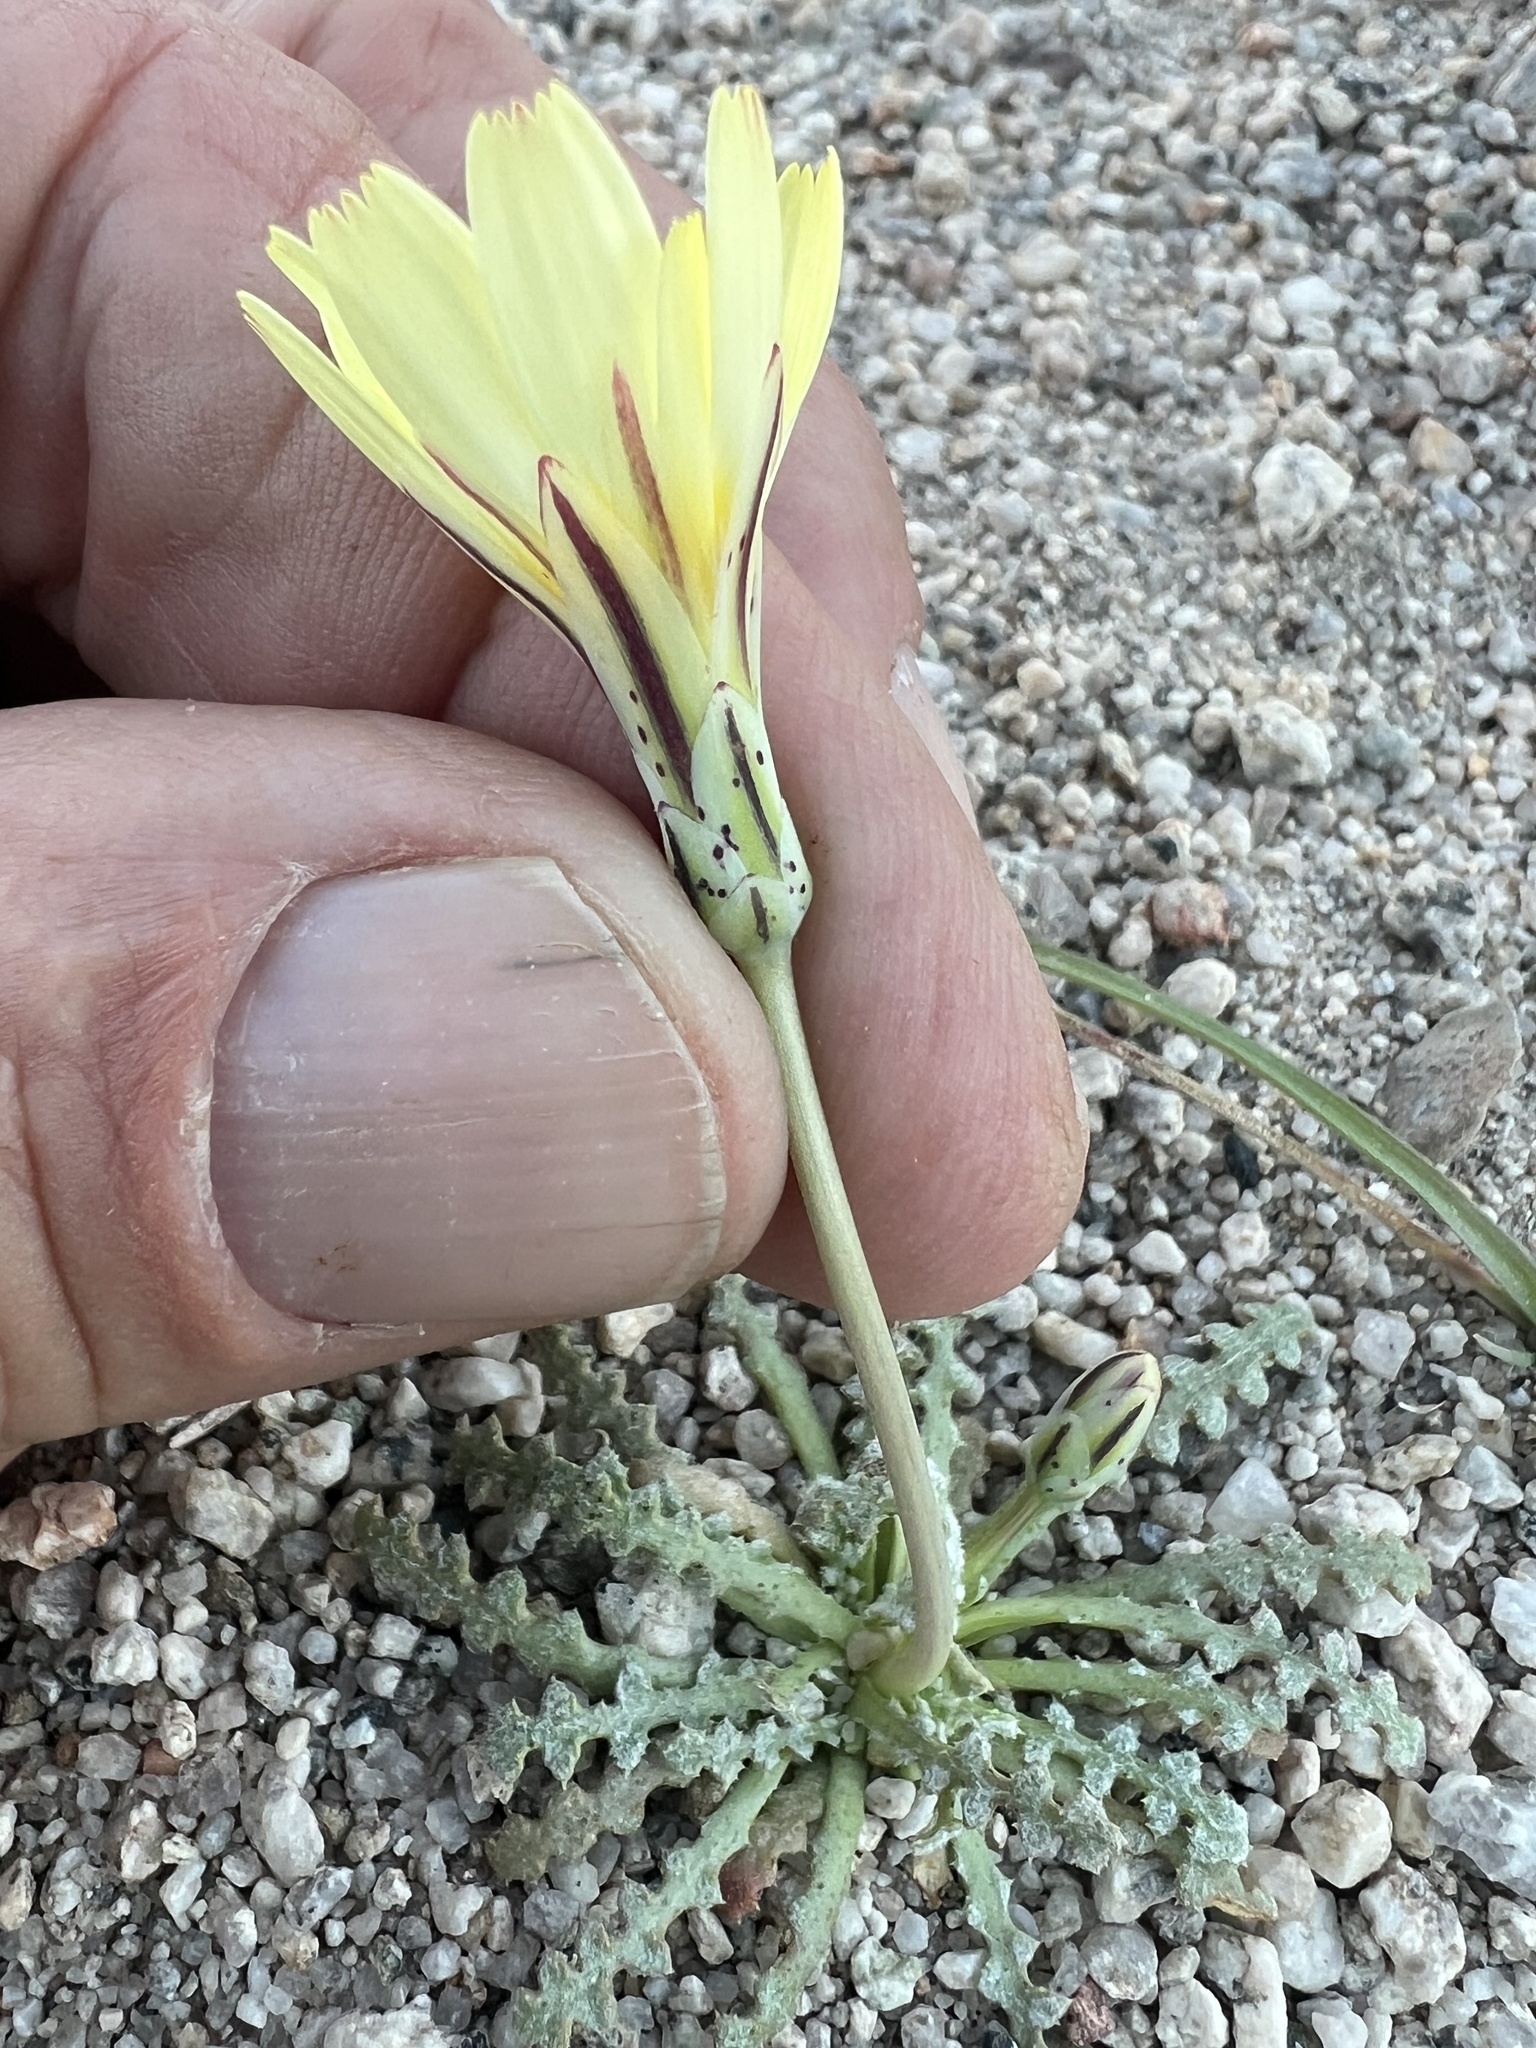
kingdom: Plantae
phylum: Tracheophyta
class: Magnoliopsida
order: Asterales
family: Asteraceae
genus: Anisocoma
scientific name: Anisocoma acaulis
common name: Scalebud
